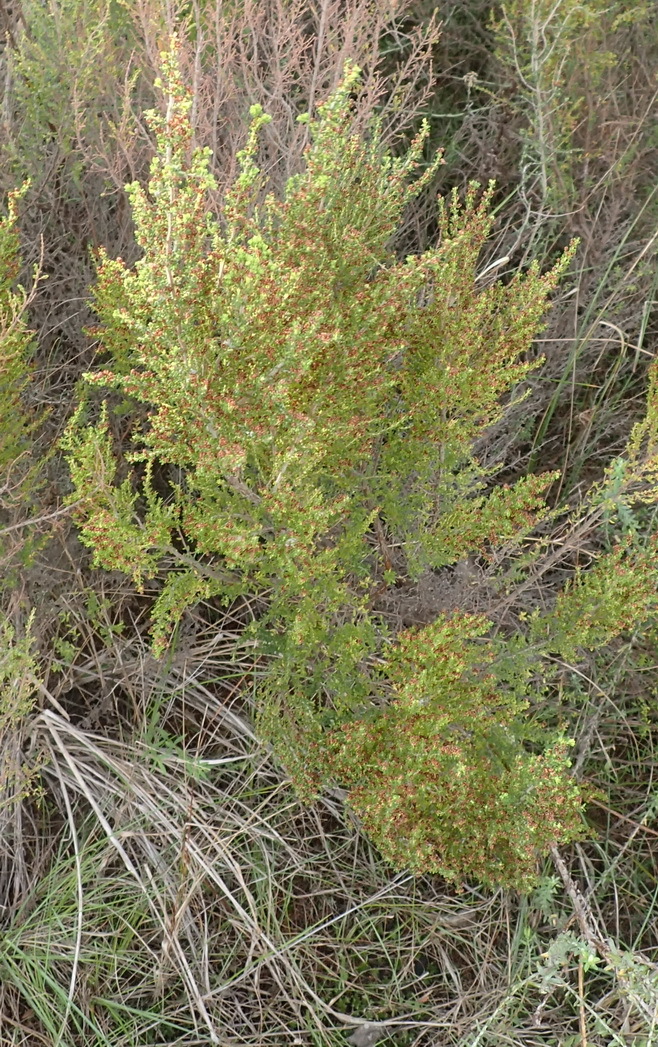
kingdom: Plantae
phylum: Tracheophyta
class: Magnoliopsida
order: Ericales
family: Ericaceae
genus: Erica
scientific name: Erica leucopelta
